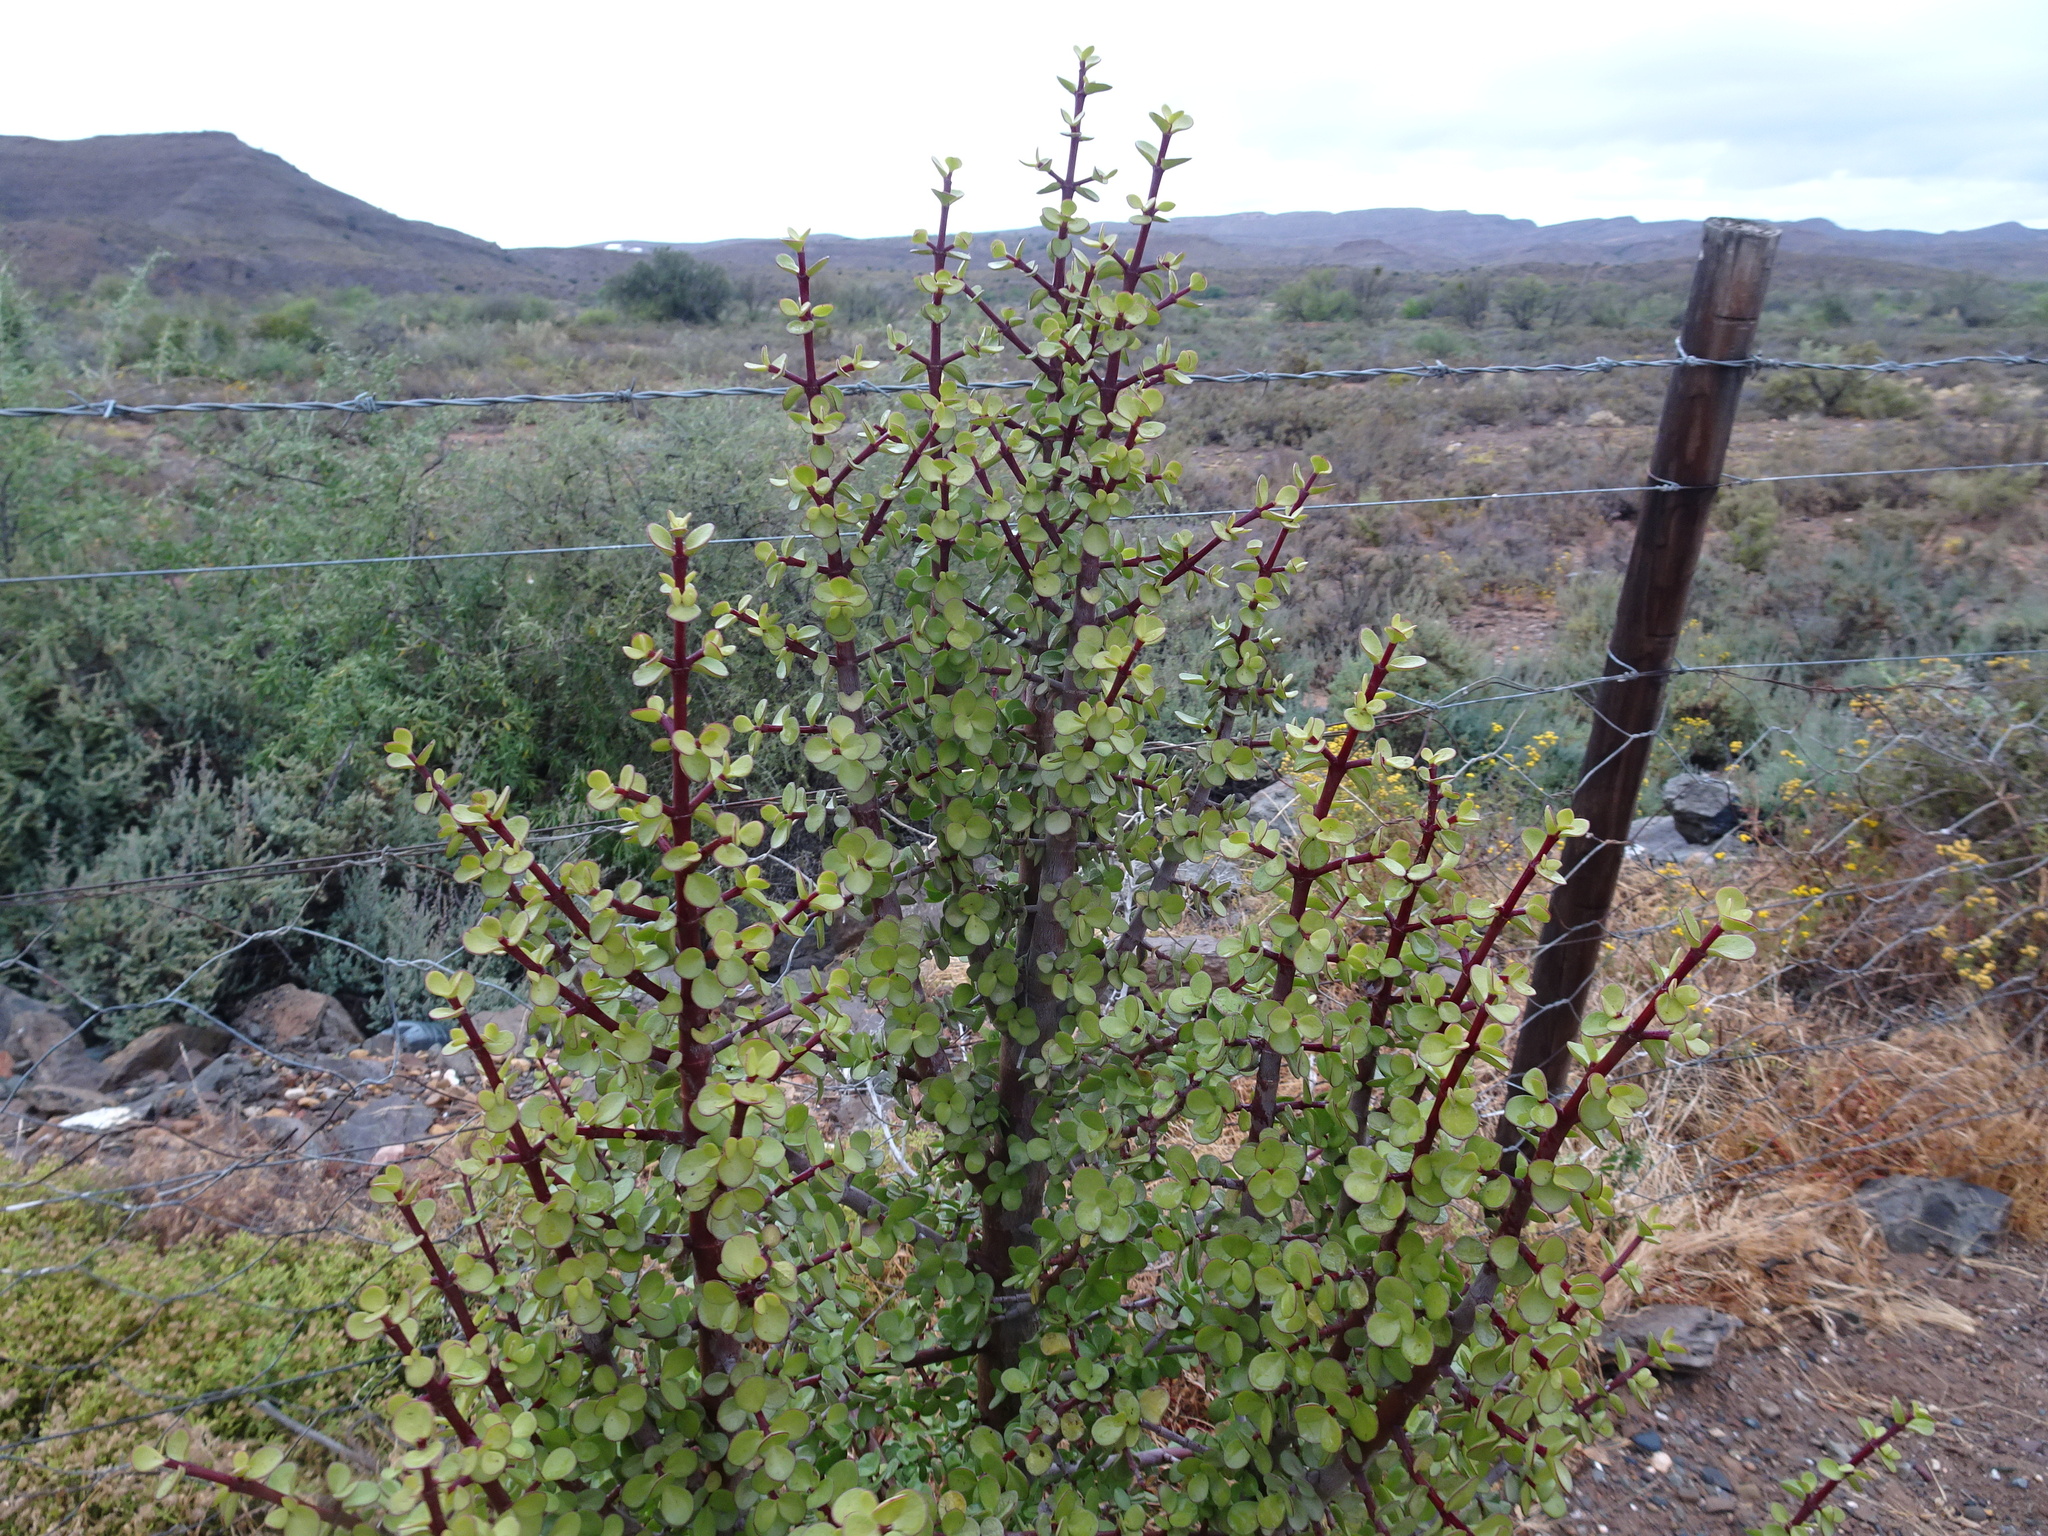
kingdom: Plantae
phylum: Tracheophyta
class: Magnoliopsida
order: Caryophyllales
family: Didiereaceae
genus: Portulacaria
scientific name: Portulacaria afra
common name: Elephant-bush
